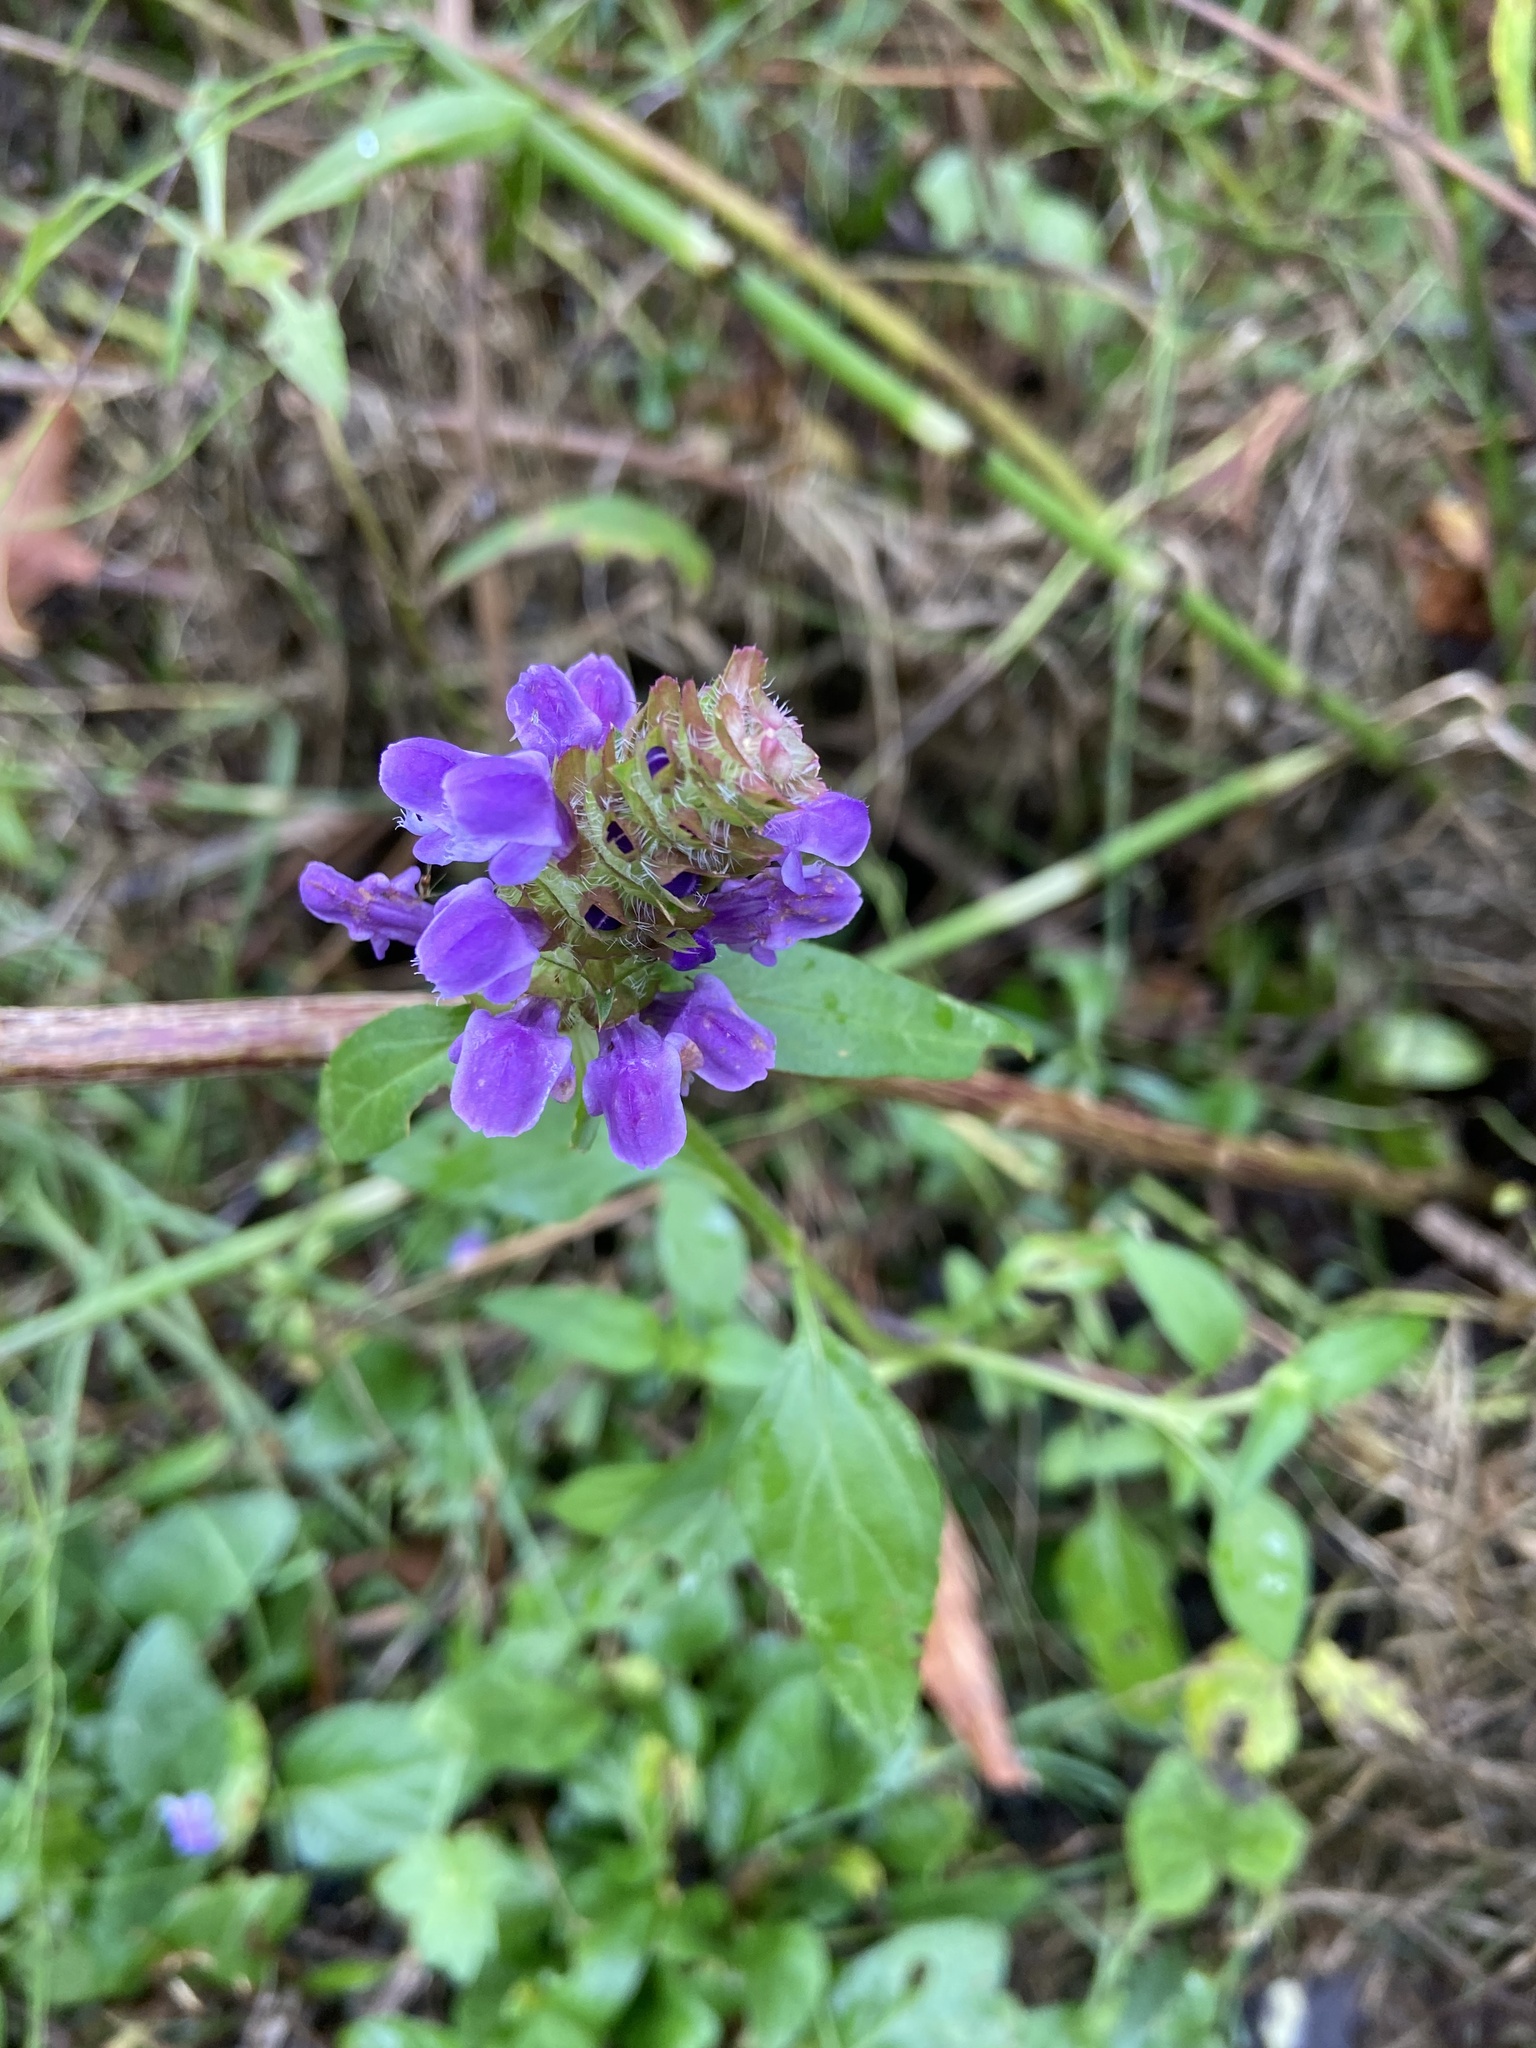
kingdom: Plantae
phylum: Tracheophyta
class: Magnoliopsida
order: Lamiales
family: Lamiaceae
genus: Prunella
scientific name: Prunella vulgaris
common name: Heal-all
